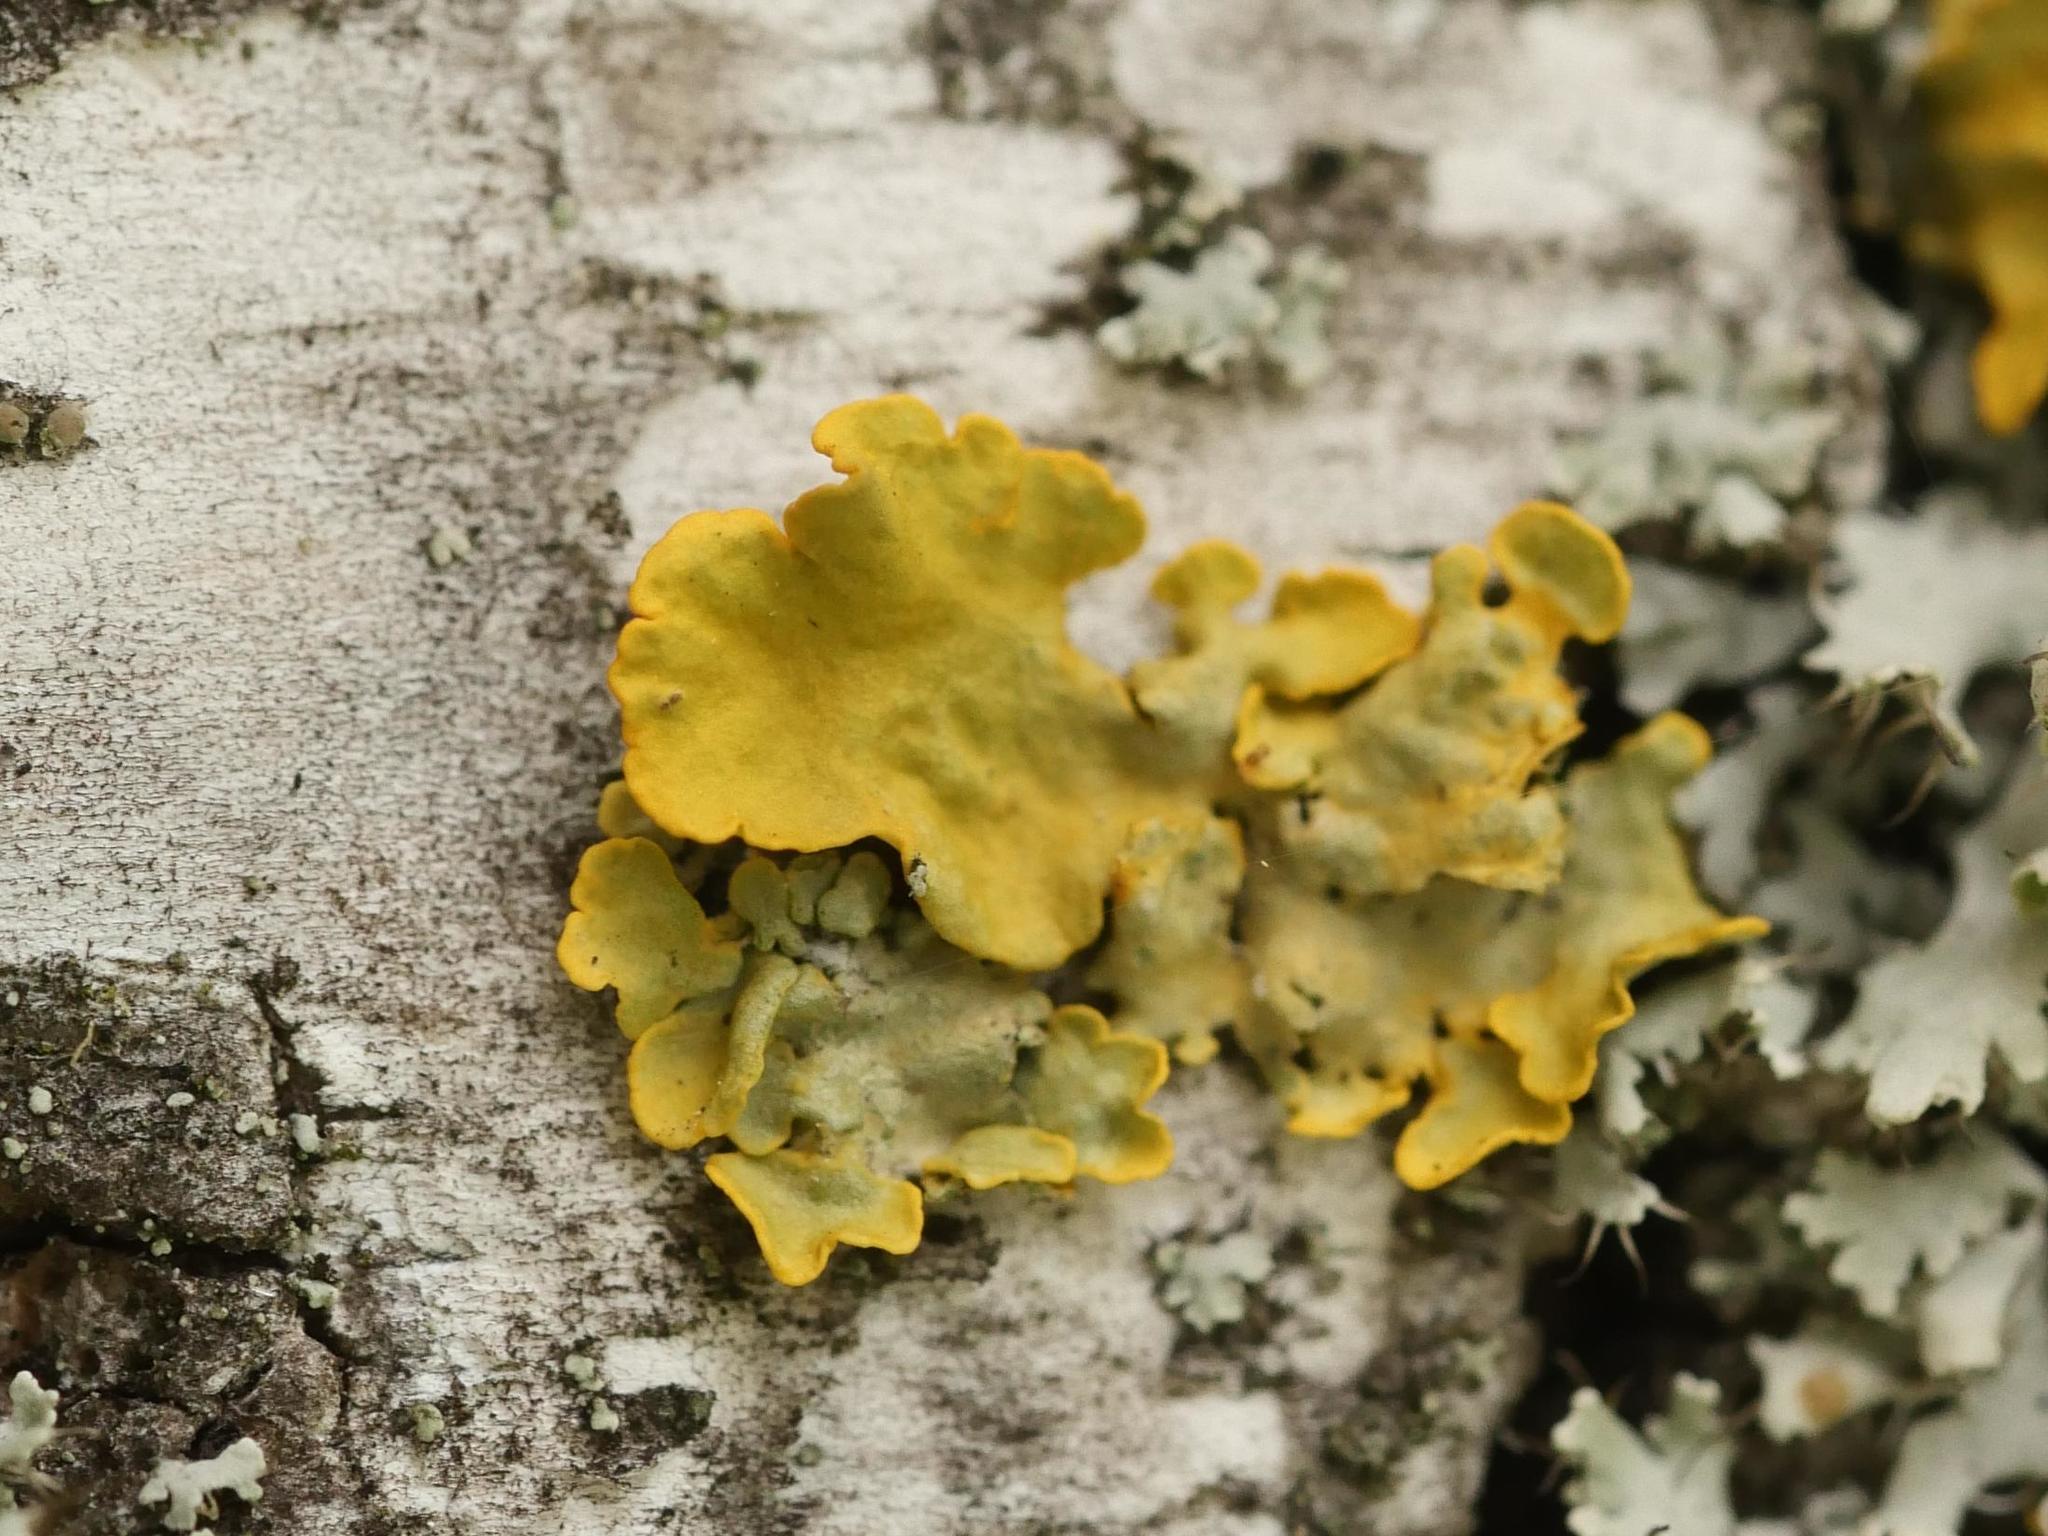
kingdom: Fungi
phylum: Ascomycota
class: Lecanoromycetes
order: Teloschistales
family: Teloschistaceae
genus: Xanthoria
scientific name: Xanthoria parietina
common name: Common orange lichen
